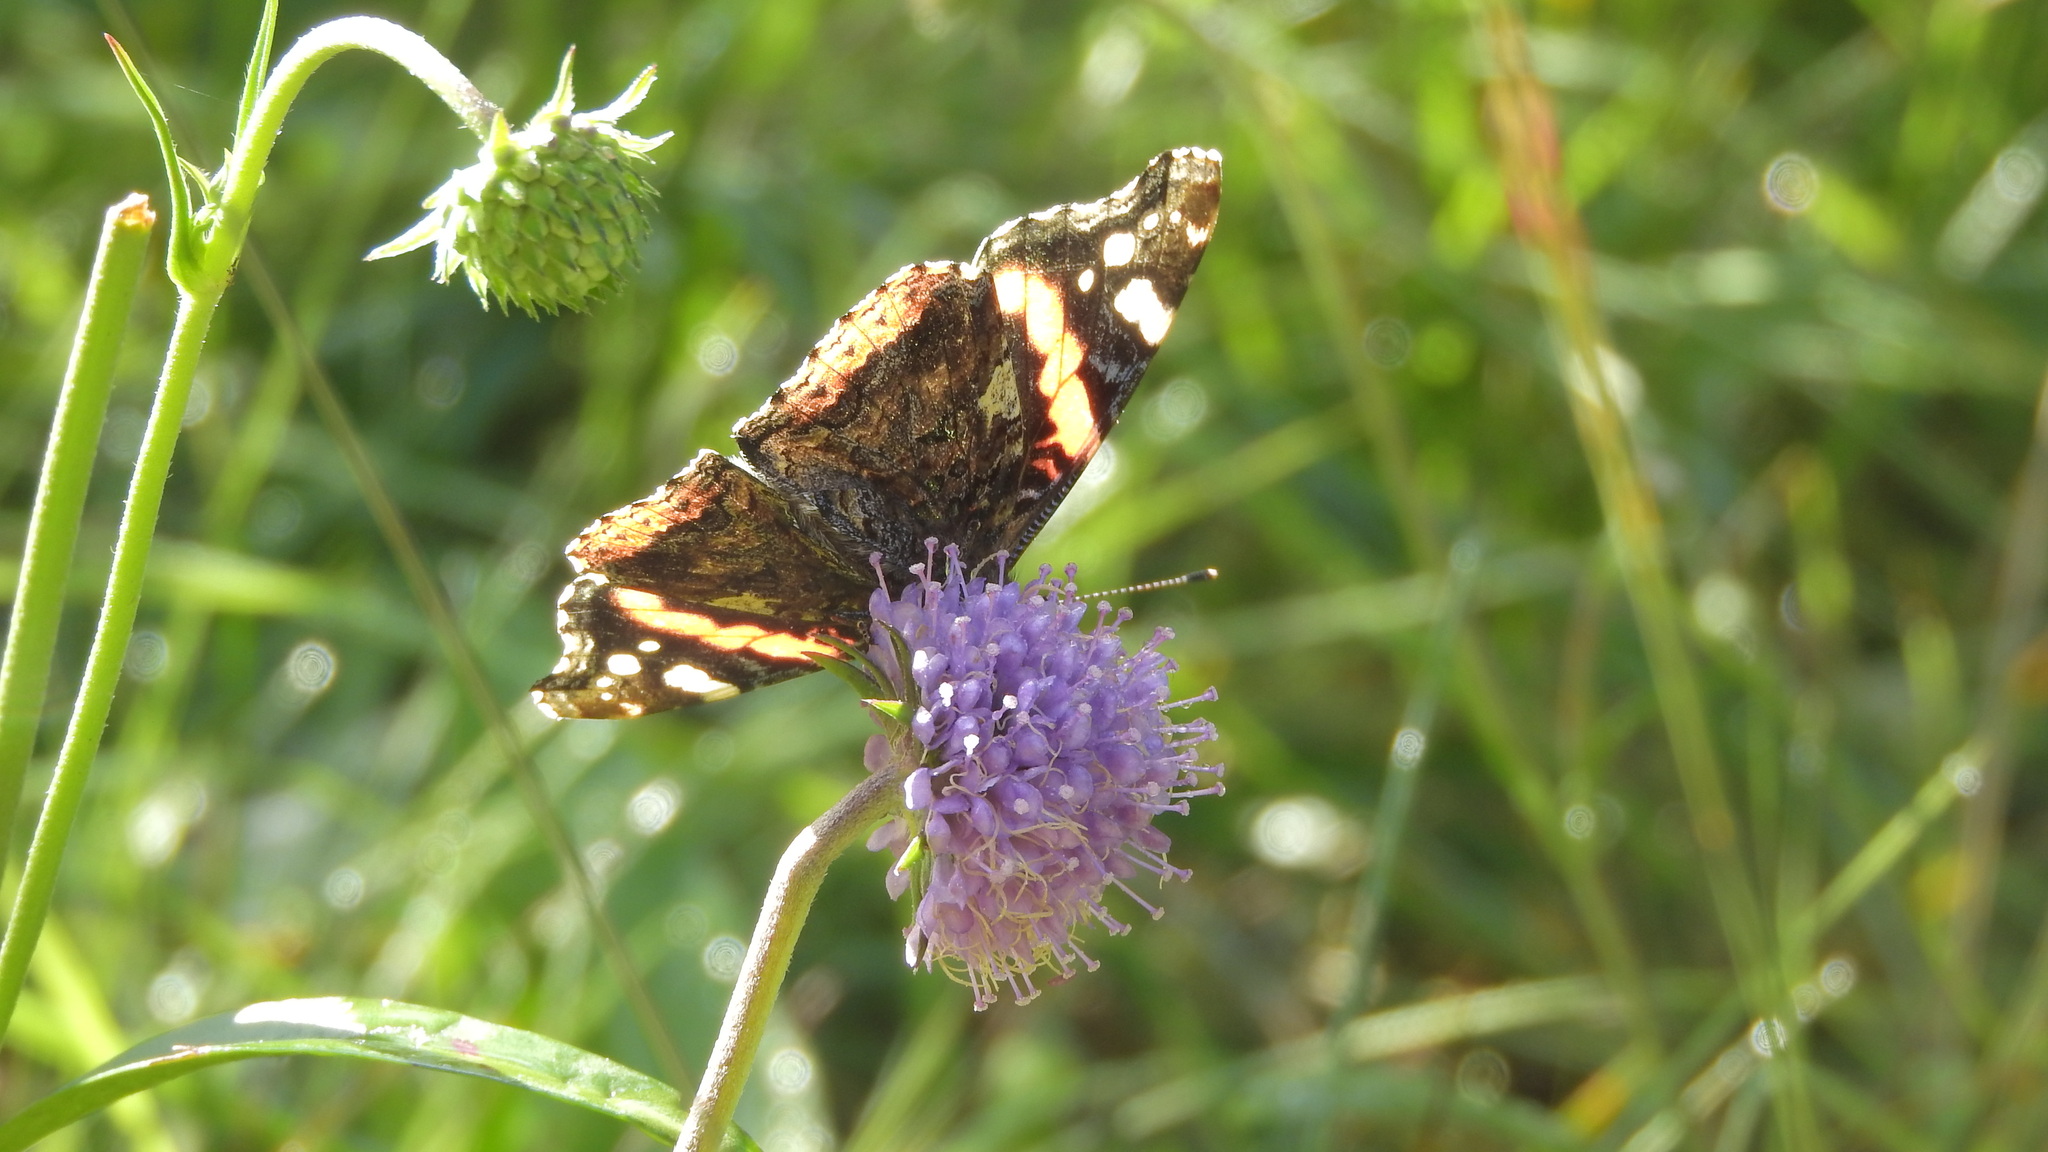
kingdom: Animalia
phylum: Arthropoda
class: Insecta
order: Lepidoptera
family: Nymphalidae
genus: Vanessa
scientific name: Vanessa atalanta
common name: Red admiral
